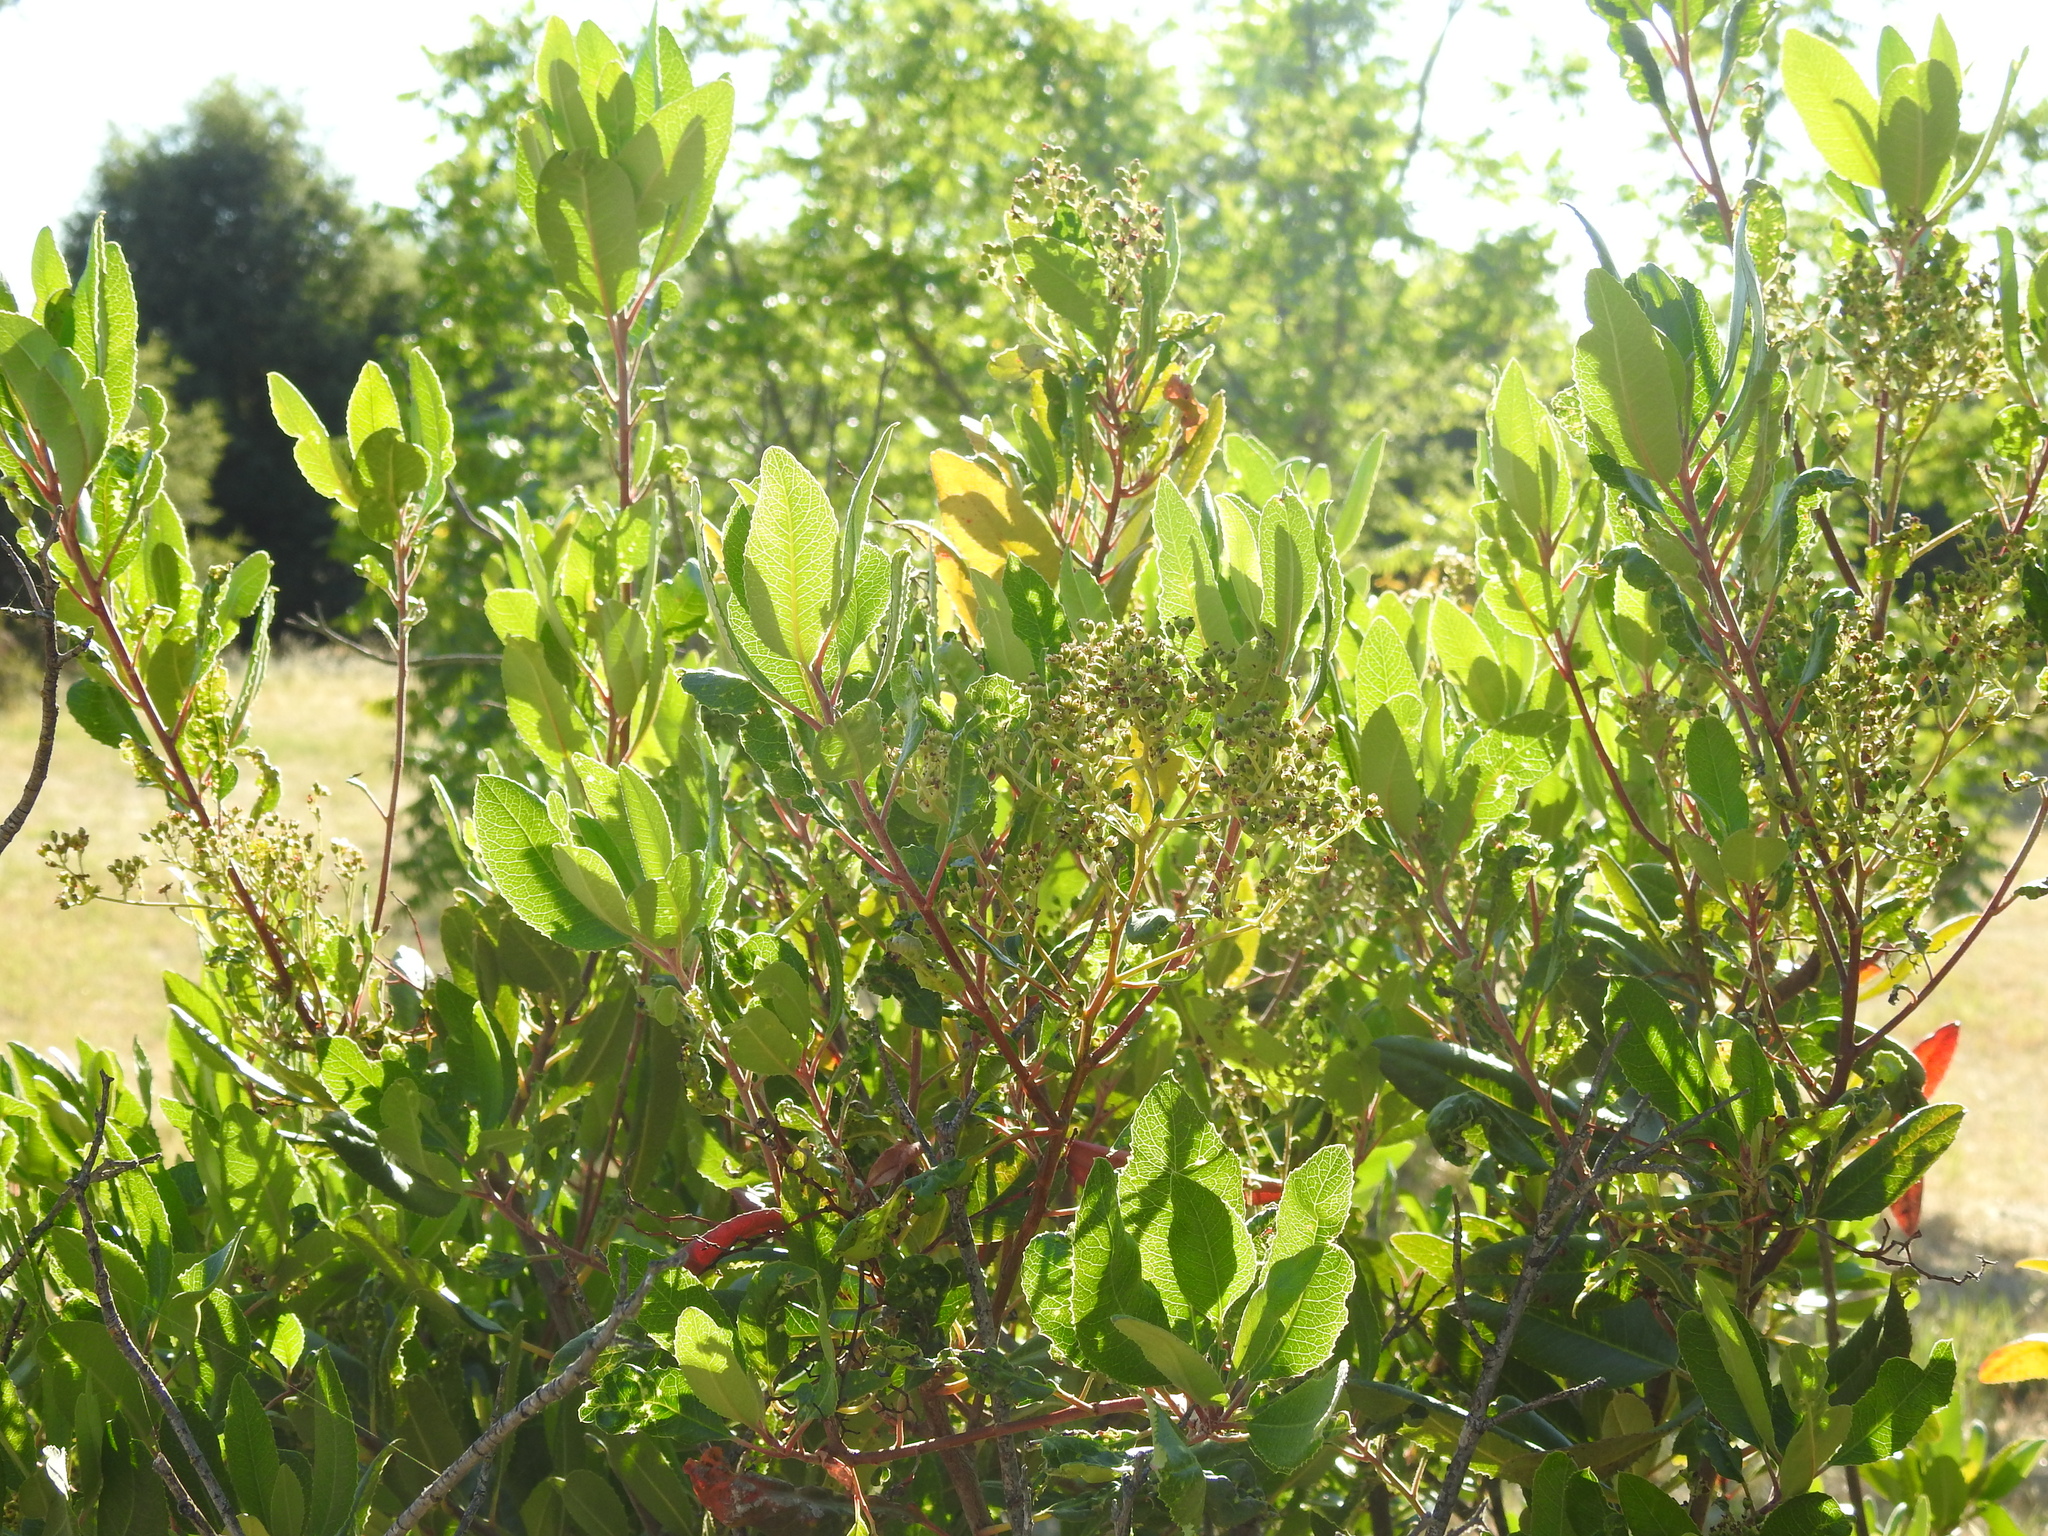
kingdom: Plantae
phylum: Tracheophyta
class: Magnoliopsida
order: Rosales
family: Rosaceae
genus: Heteromeles
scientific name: Heteromeles arbutifolia
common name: California-holly
